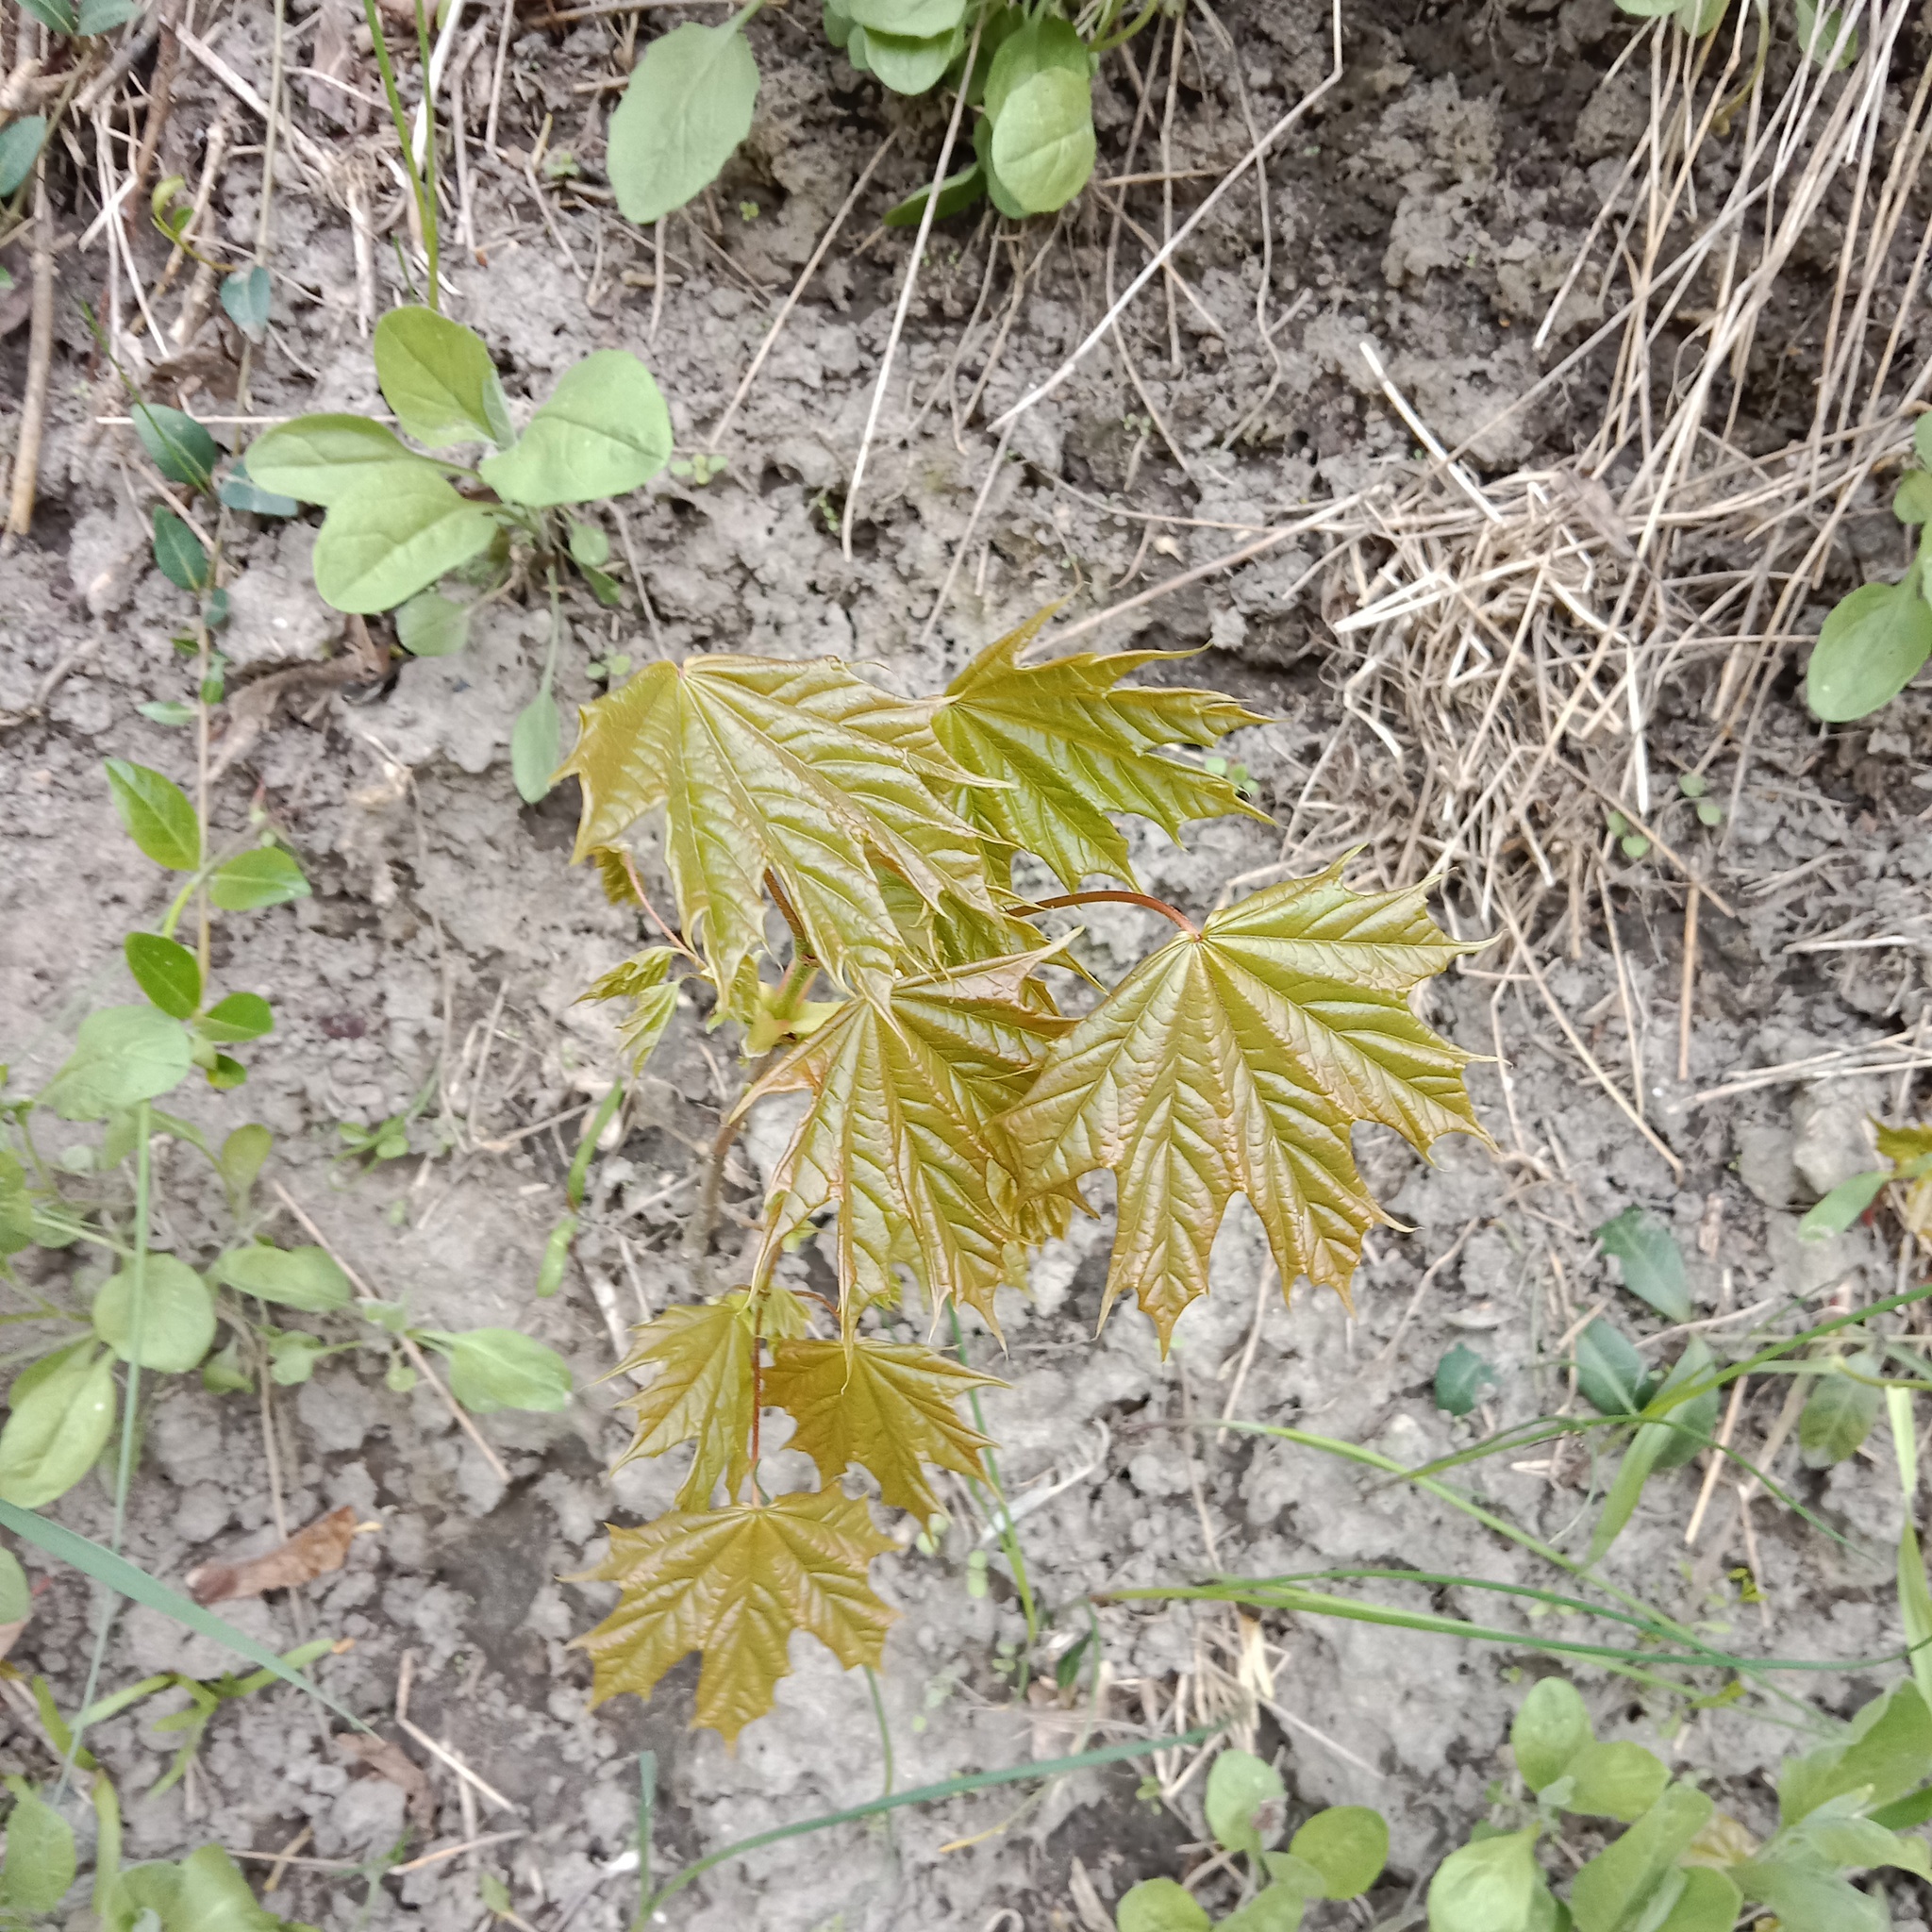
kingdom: Plantae
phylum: Tracheophyta
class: Magnoliopsida
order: Sapindales
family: Sapindaceae
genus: Acer
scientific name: Acer platanoides
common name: Norway maple
